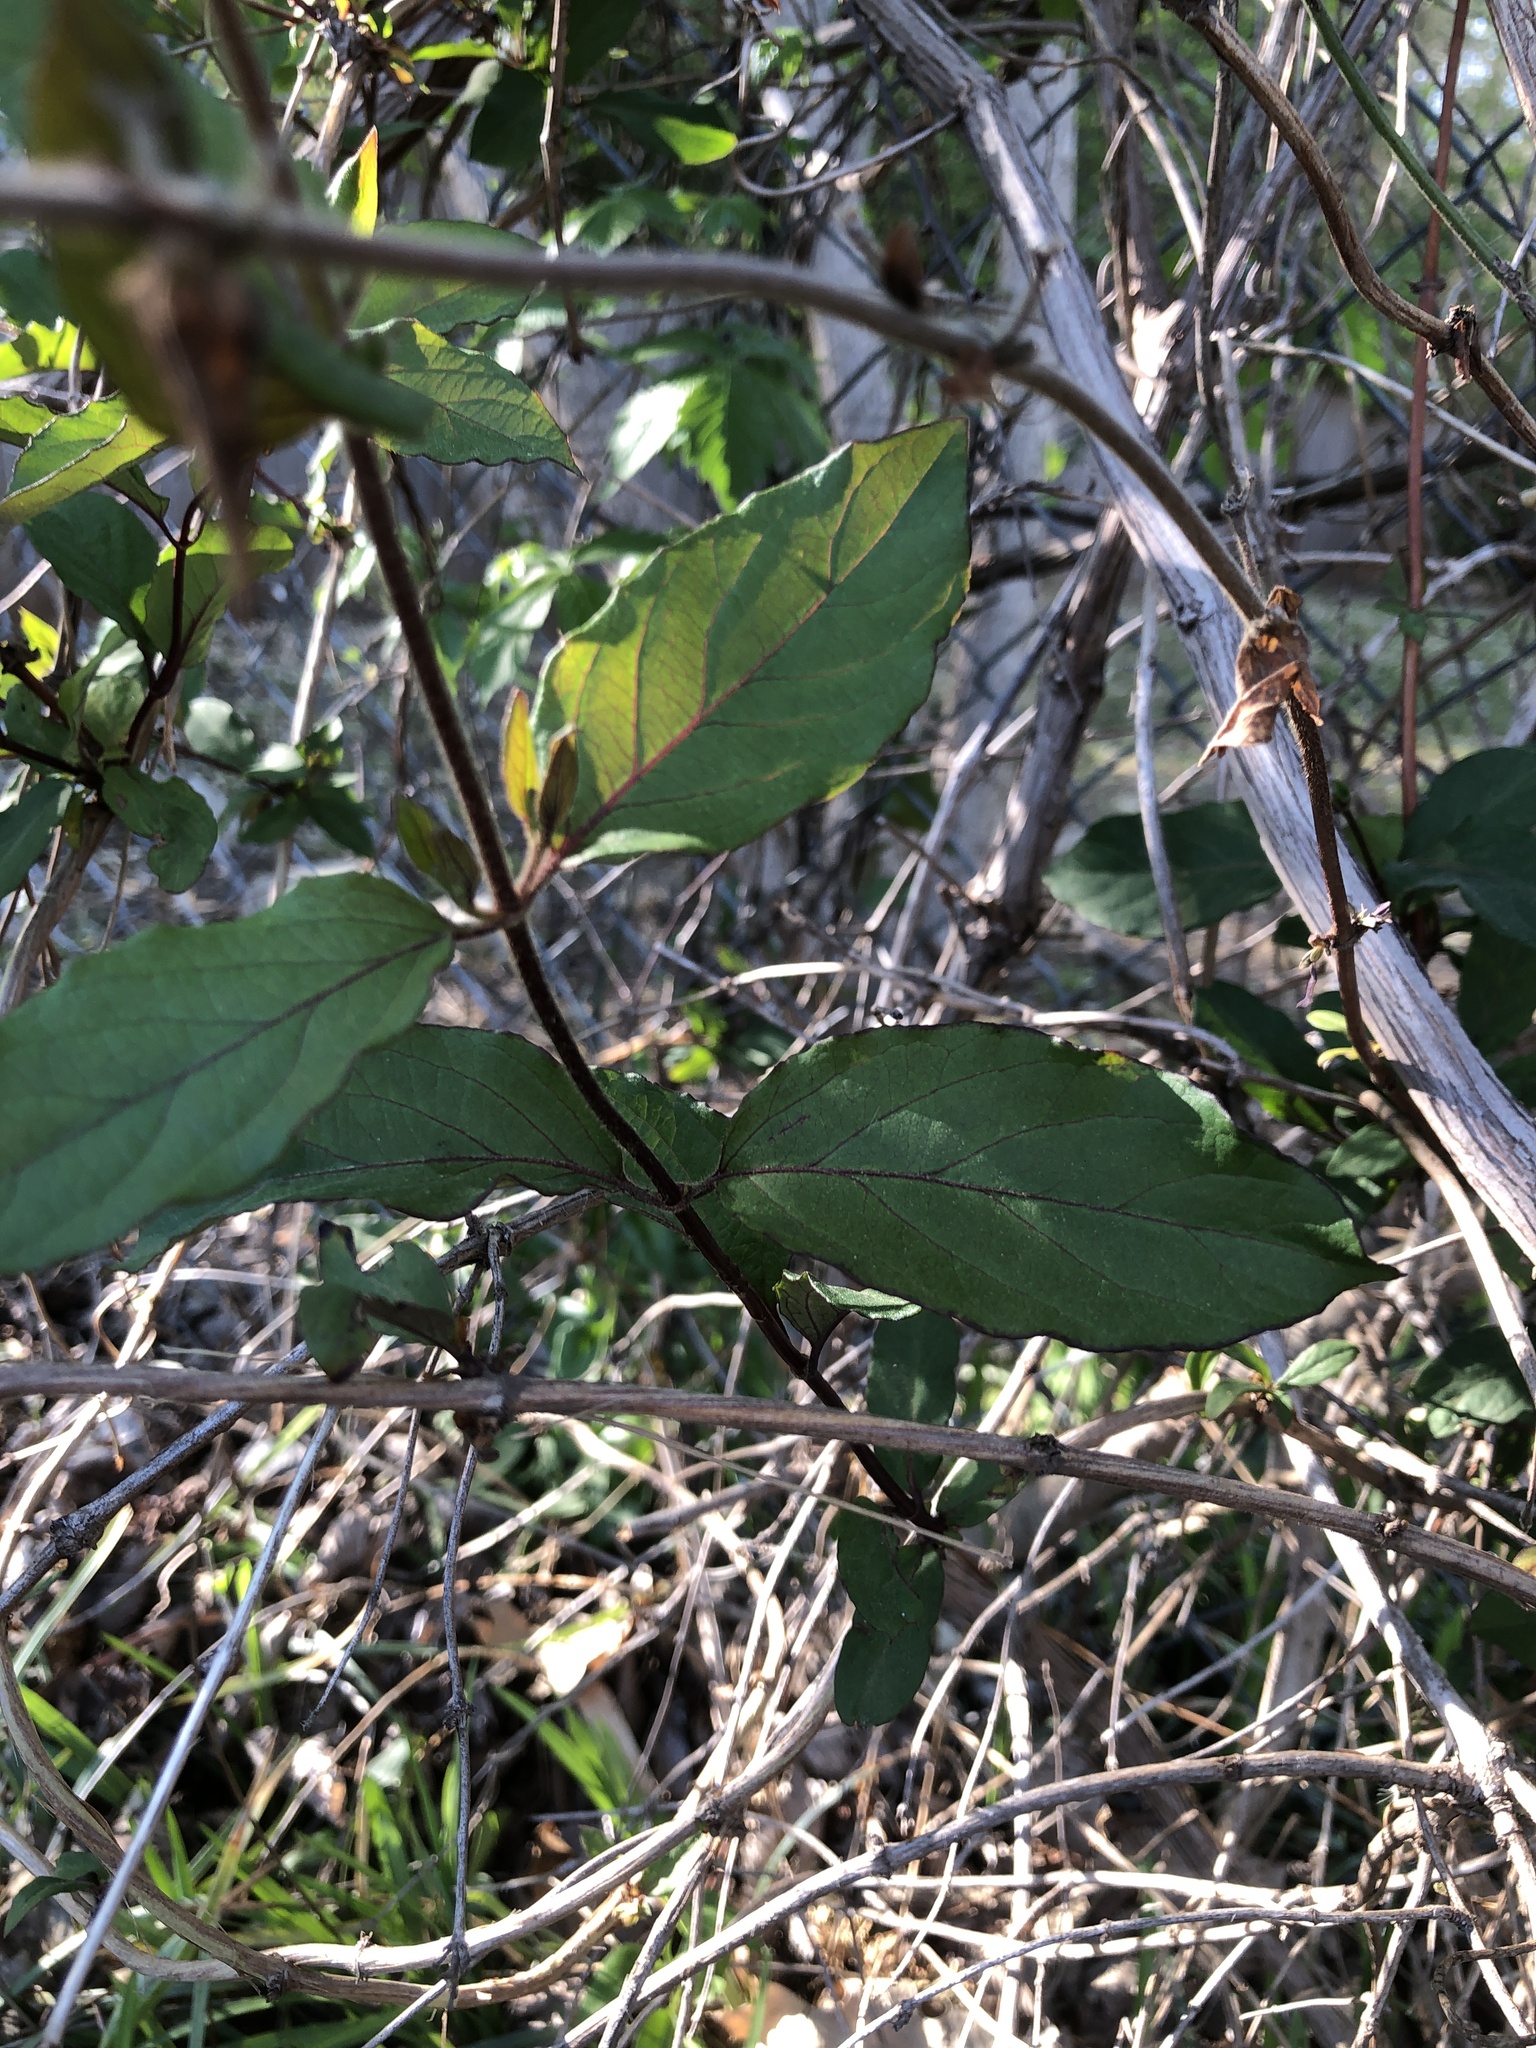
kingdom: Plantae
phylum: Tracheophyta
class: Magnoliopsida
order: Dipsacales
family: Caprifoliaceae
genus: Lonicera
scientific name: Lonicera japonica
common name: Japanese honeysuckle
